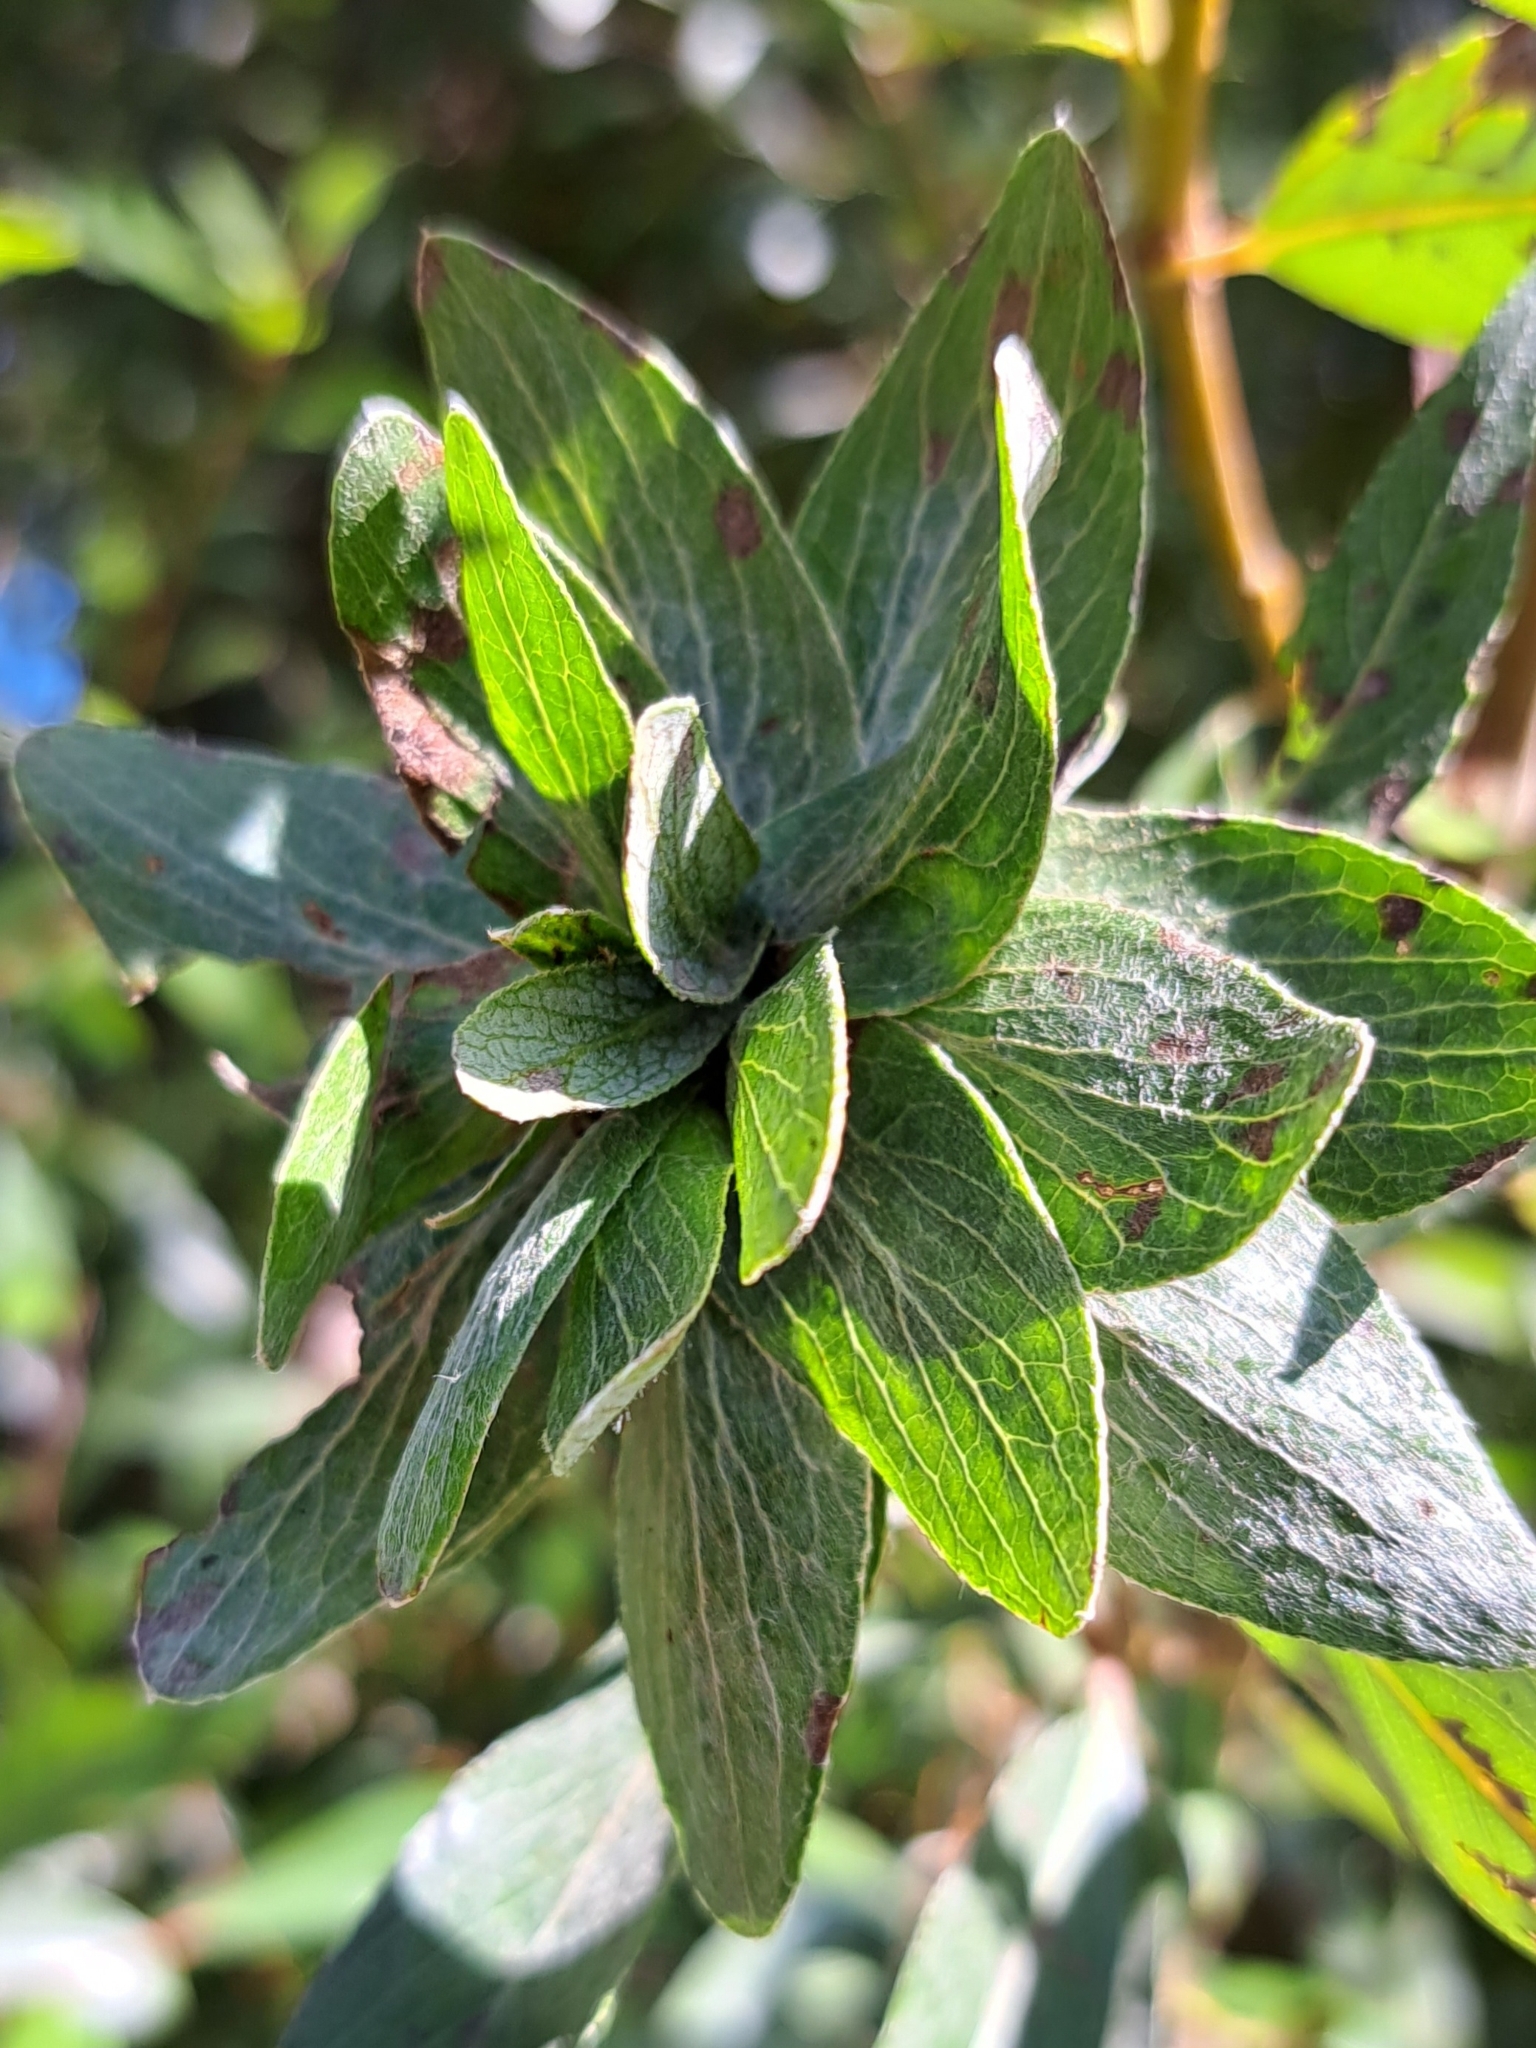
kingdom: Animalia
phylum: Arthropoda
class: Insecta
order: Diptera
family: Cecidomyiidae
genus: Rabdophaga
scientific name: Rabdophaga rosaria
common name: Willow rose gall midge
